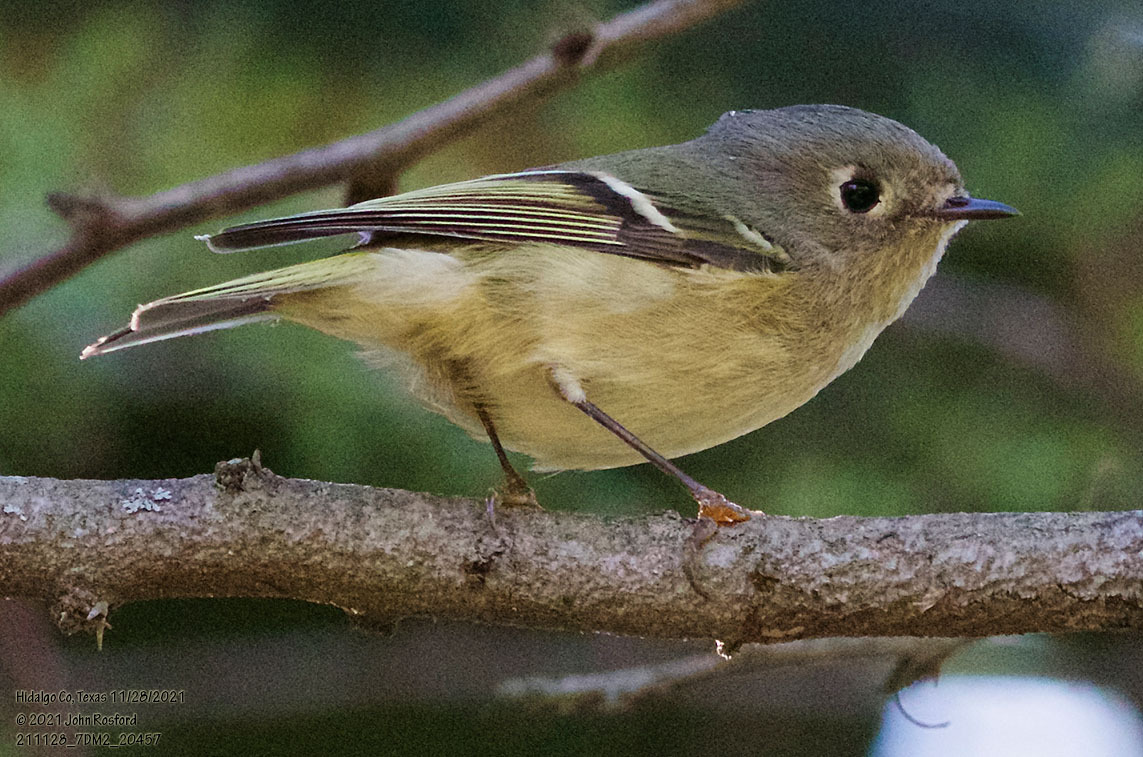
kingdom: Animalia
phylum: Chordata
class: Aves
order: Passeriformes
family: Regulidae
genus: Regulus
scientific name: Regulus calendula
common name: Ruby-crowned kinglet
